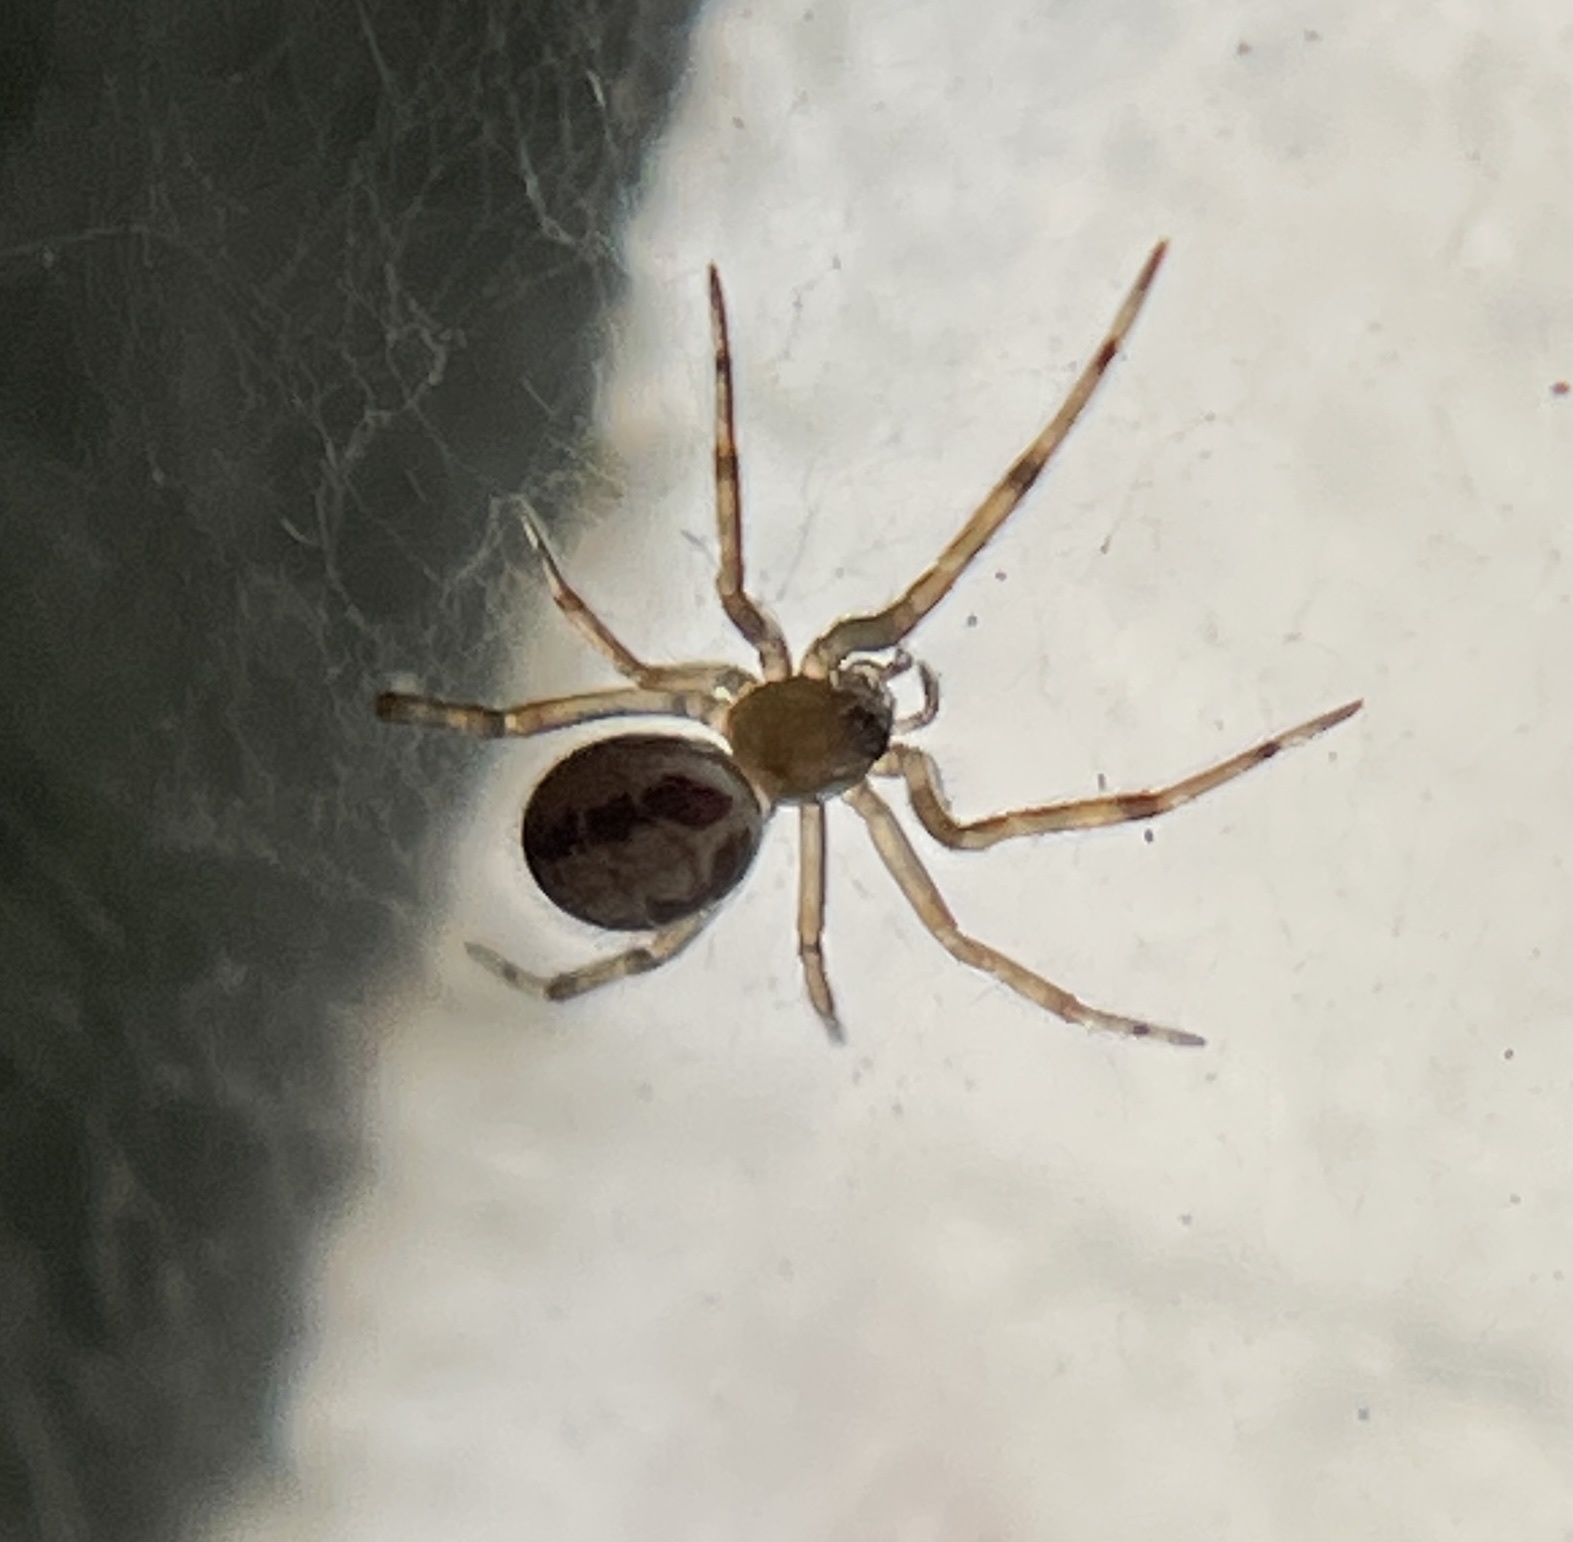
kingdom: Animalia
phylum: Arthropoda
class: Arachnida
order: Araneae
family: Theridiidae
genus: Steatoda
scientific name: Steatoda nobilis
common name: Cobweb weaver
